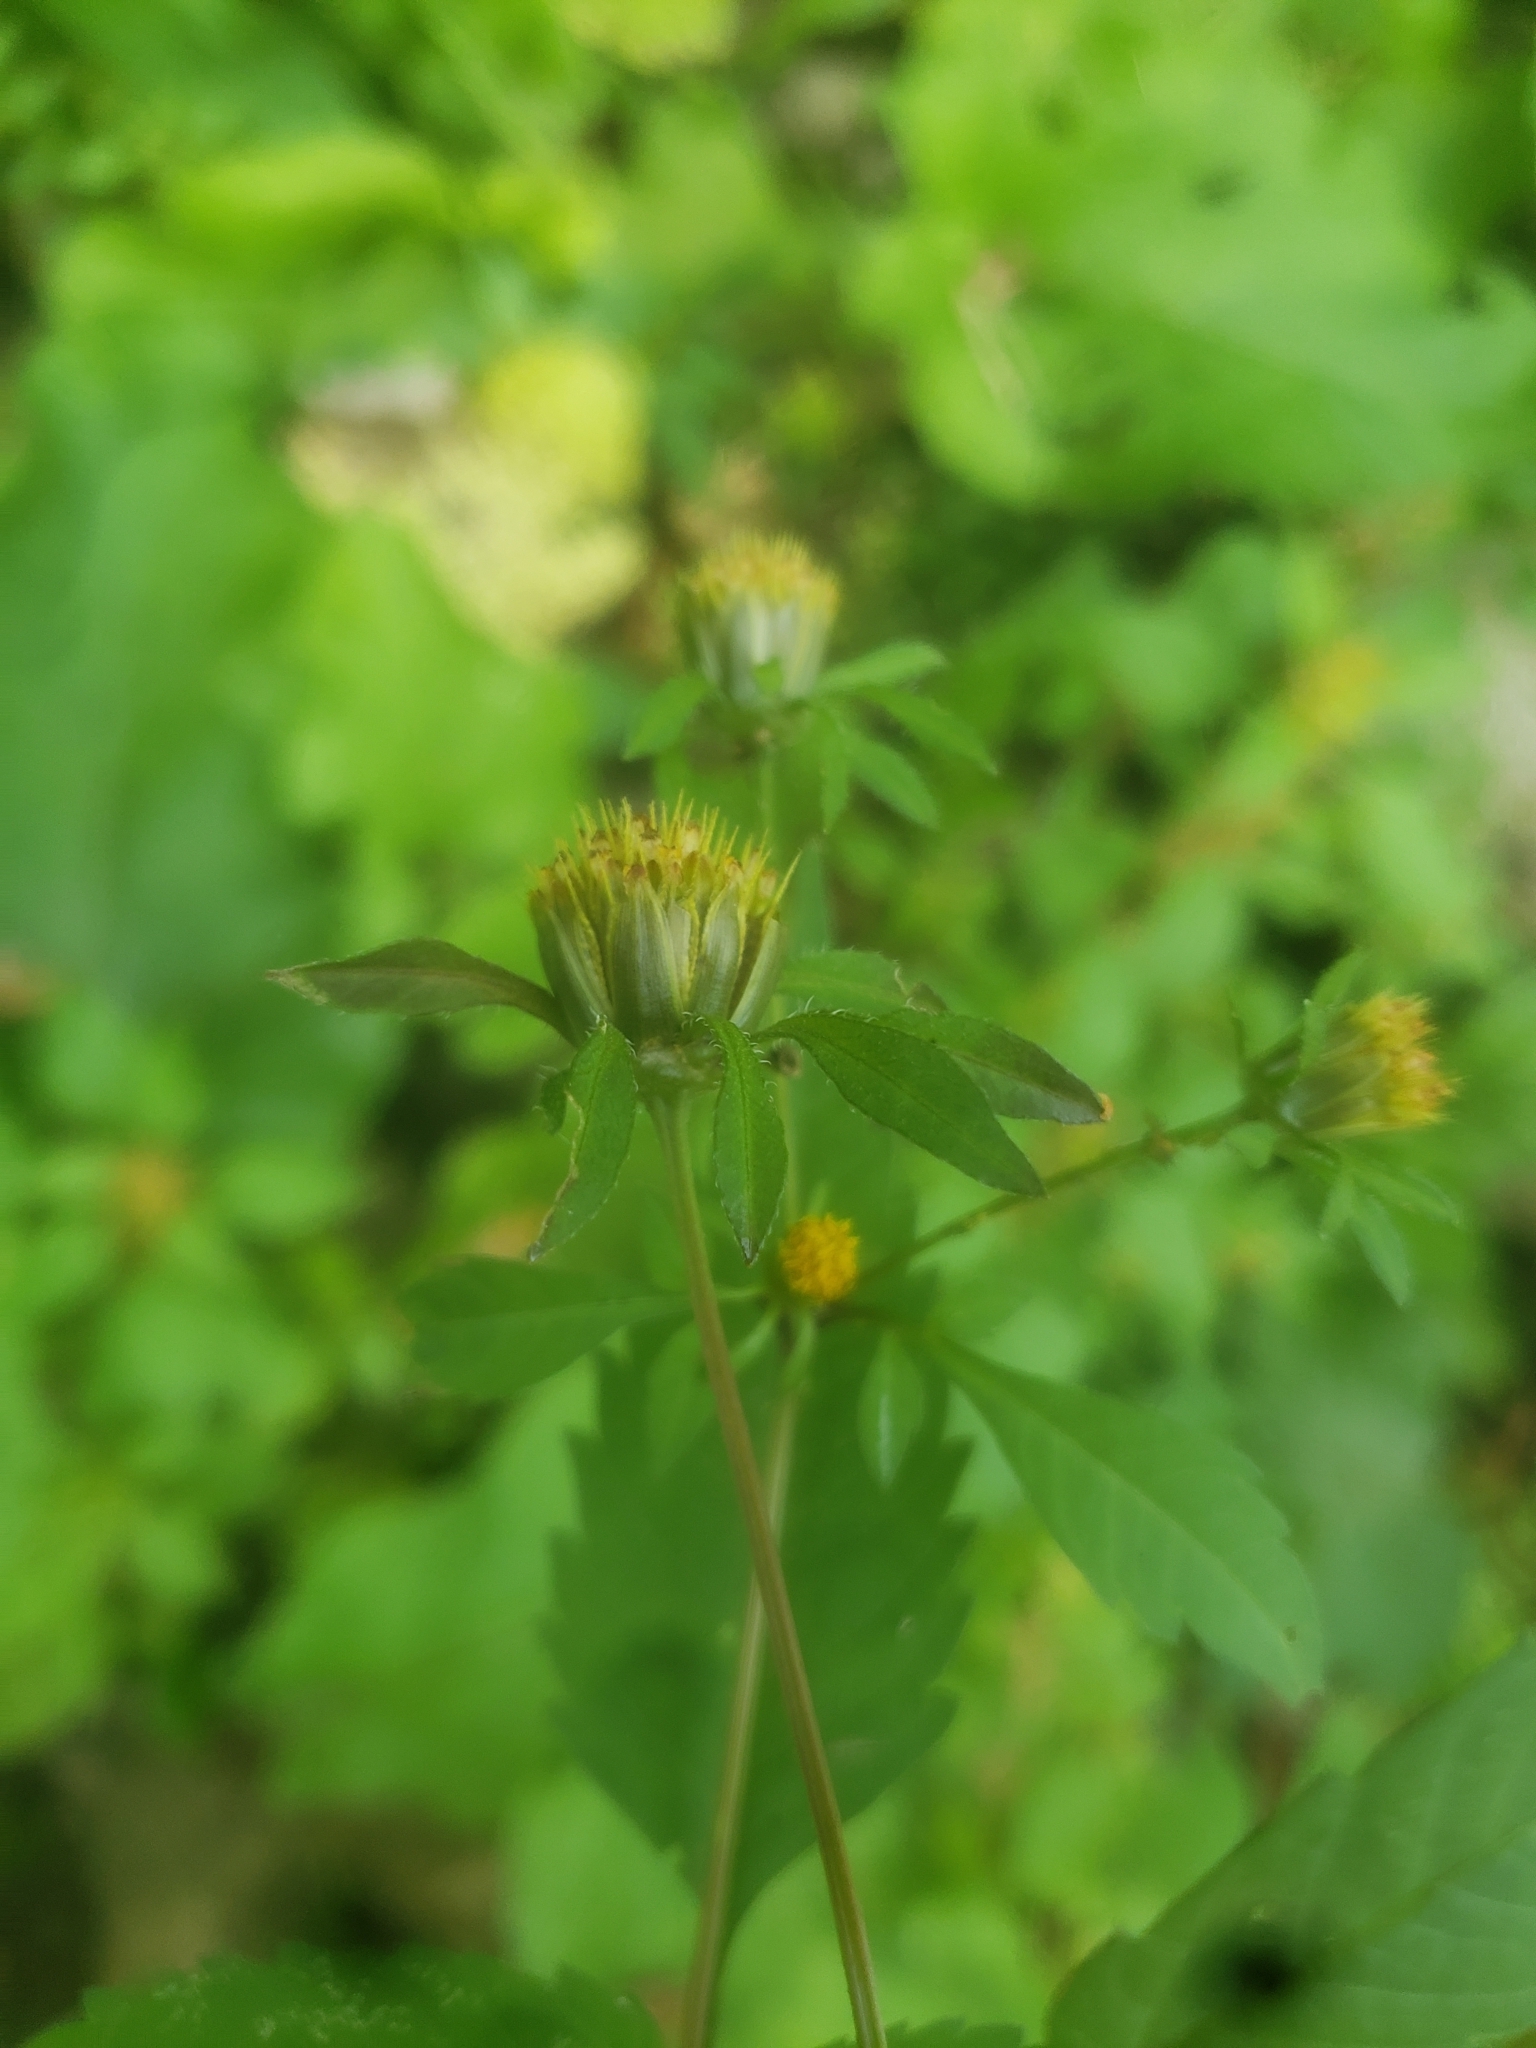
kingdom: Plantae
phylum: Tracheophyta
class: Magnoliopsida
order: Asterales
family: Asteraceae
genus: Bidens
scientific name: Bidens frondosa
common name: Beggarticks
